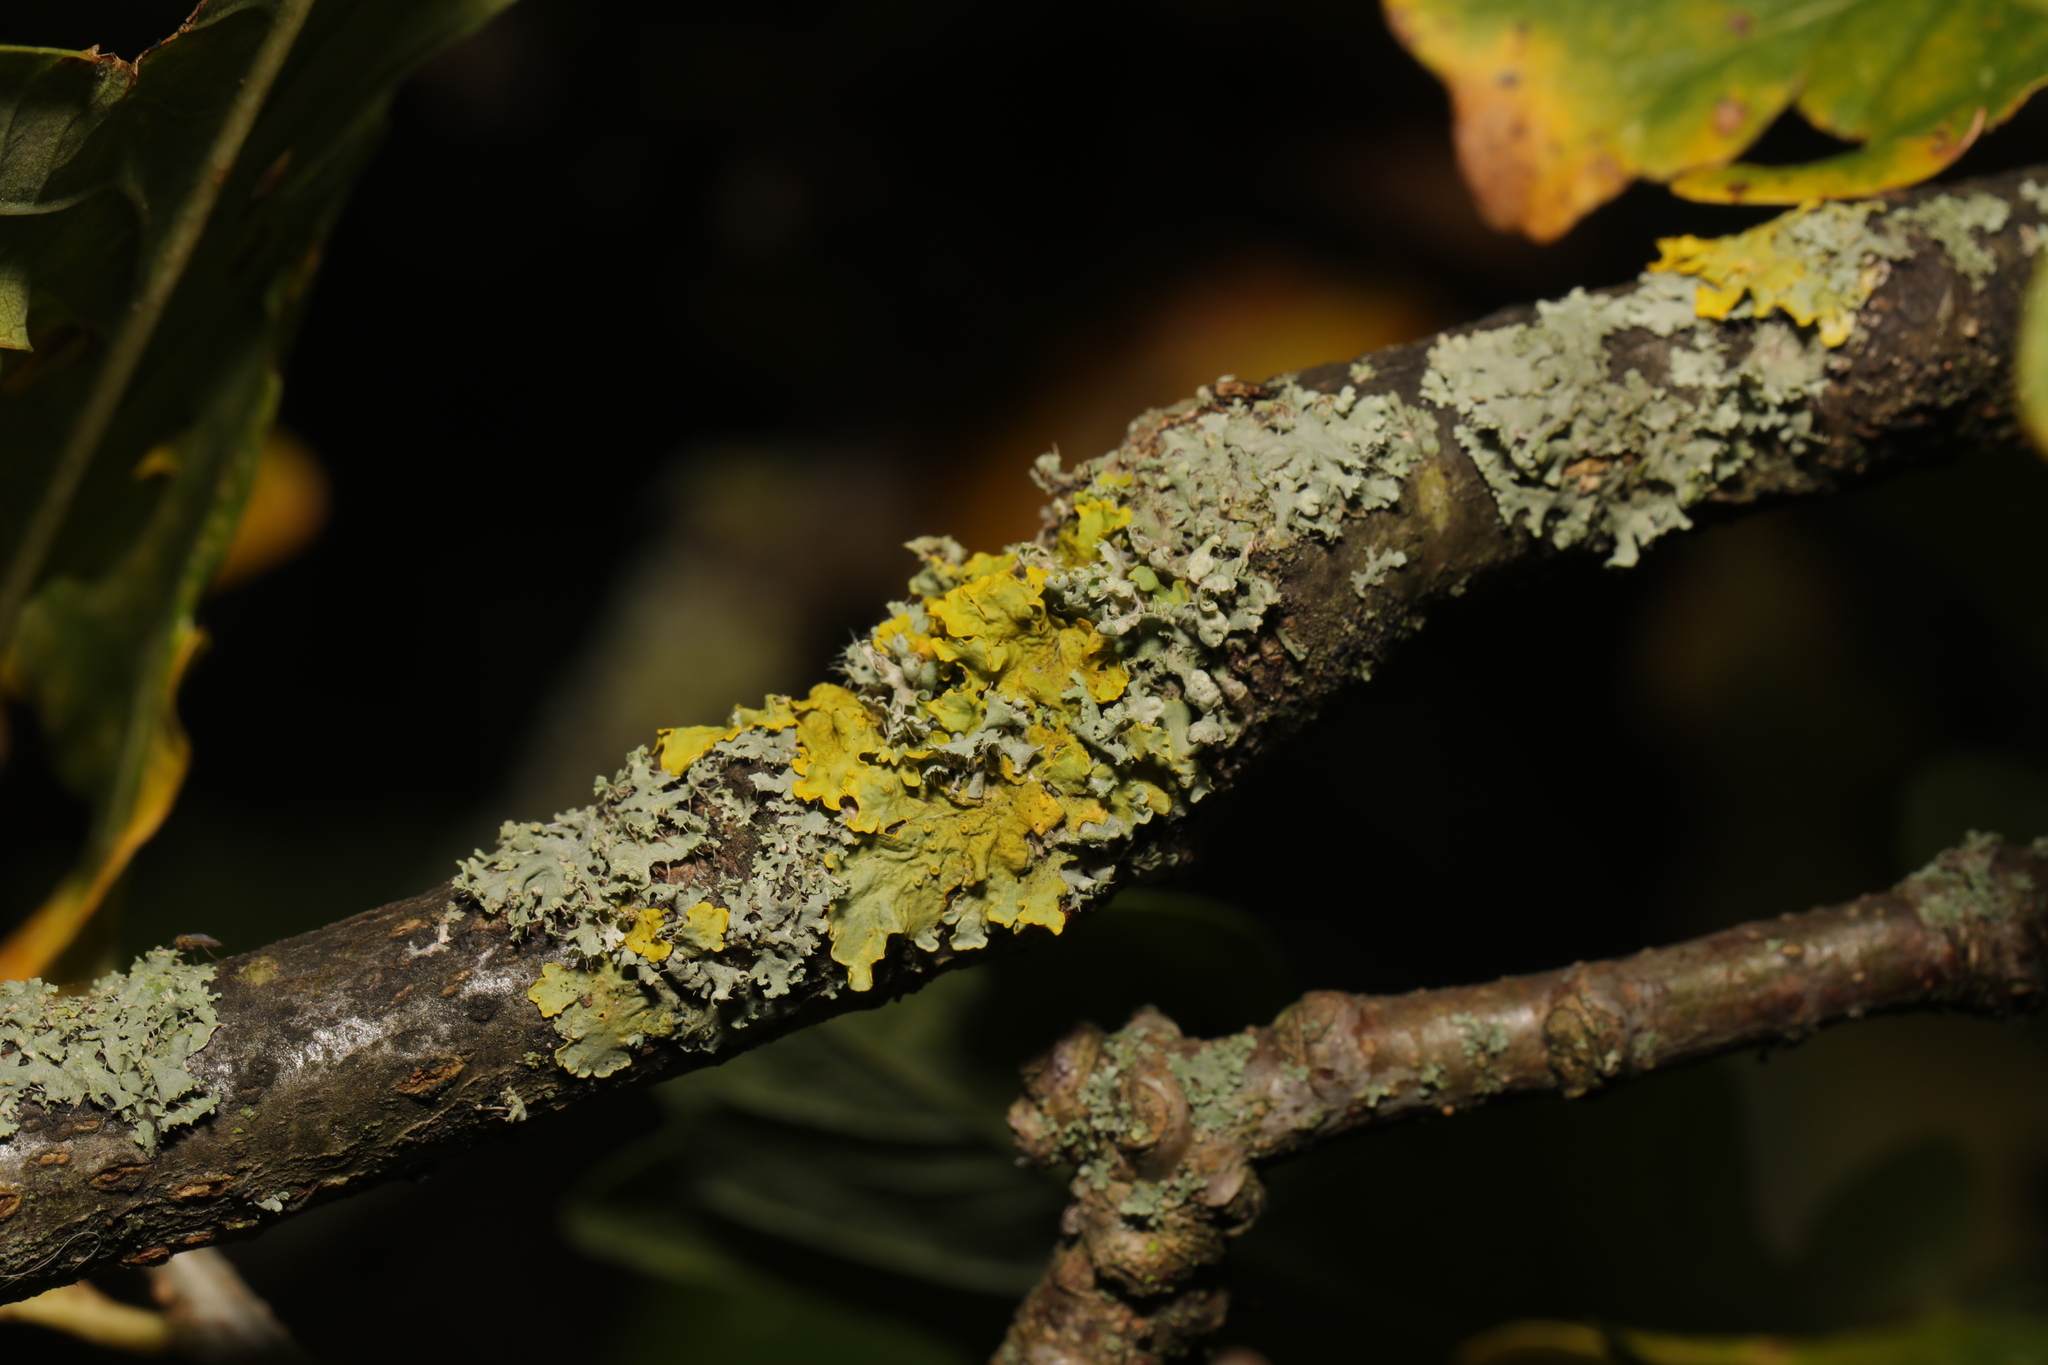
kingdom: Fungi
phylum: Ascomycota
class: Lecanoromycetes
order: Teloschistales
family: Teloschistaceae
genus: Xanthoria
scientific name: Xanthoria parietina
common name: Common orange lichen
